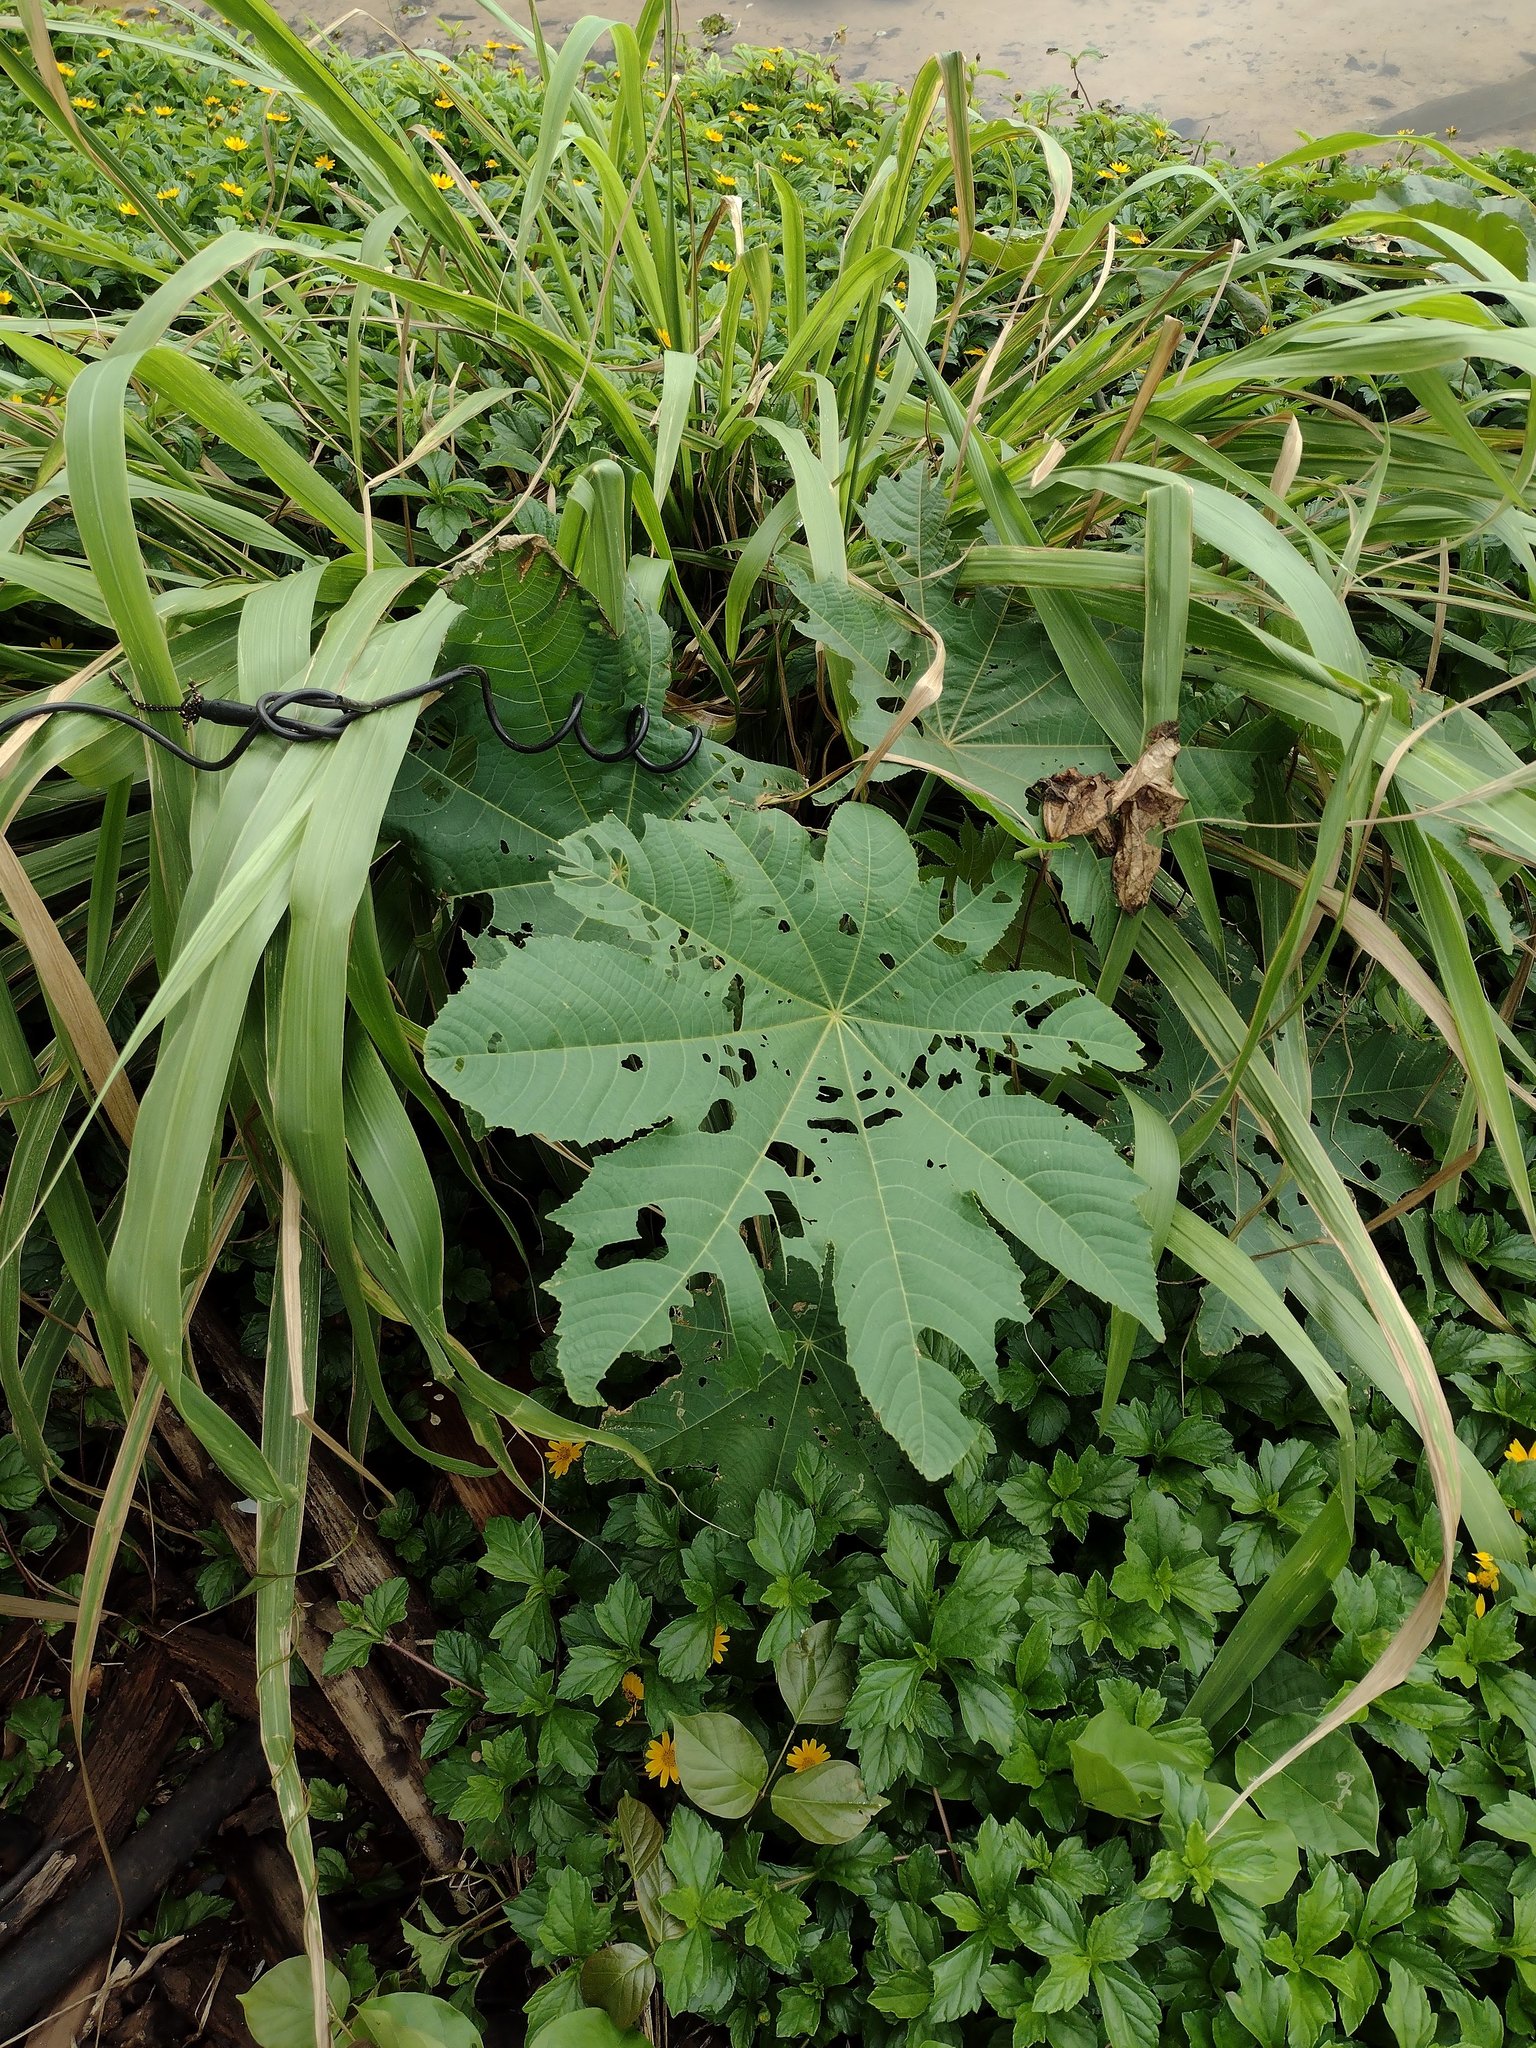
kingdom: Plantae
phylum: Tracheophyta
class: Magnoliopsida
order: Malpighiales
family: Euphorbiaceae
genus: Ricinus
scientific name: Ricinus communis
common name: Castor-oil-plant
